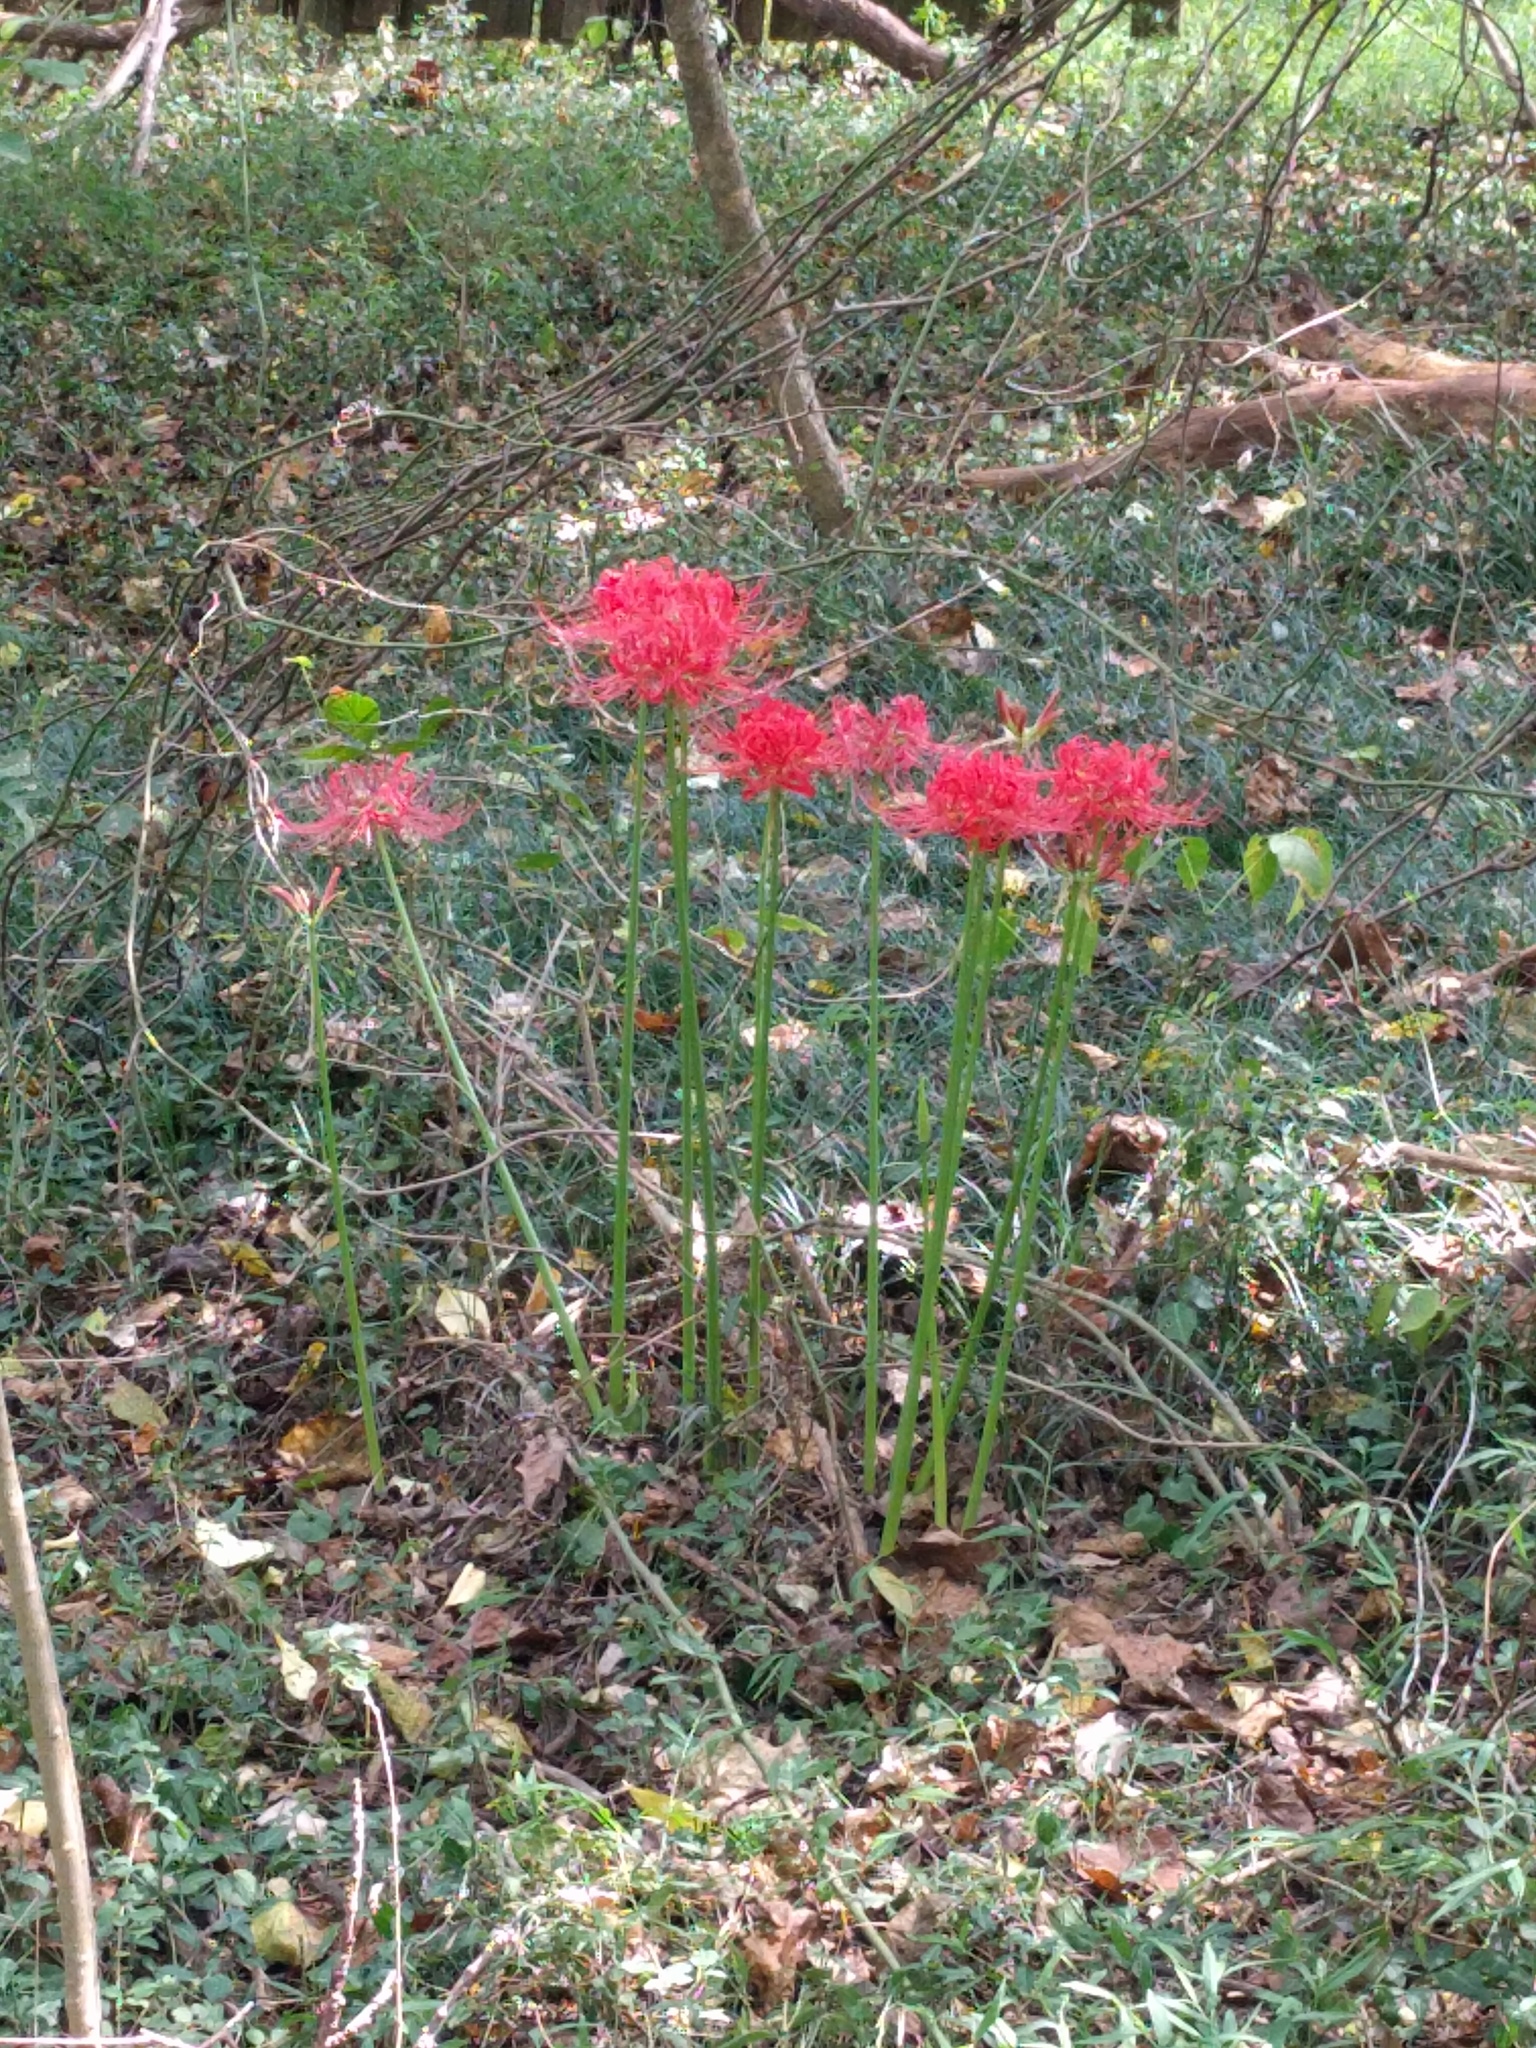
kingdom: Plantae
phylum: Tracheophyta
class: Liliopsida
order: Asparagales
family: Amaryllidaceae
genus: Lycoris
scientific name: Lycoris radiata
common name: Red spider lily
